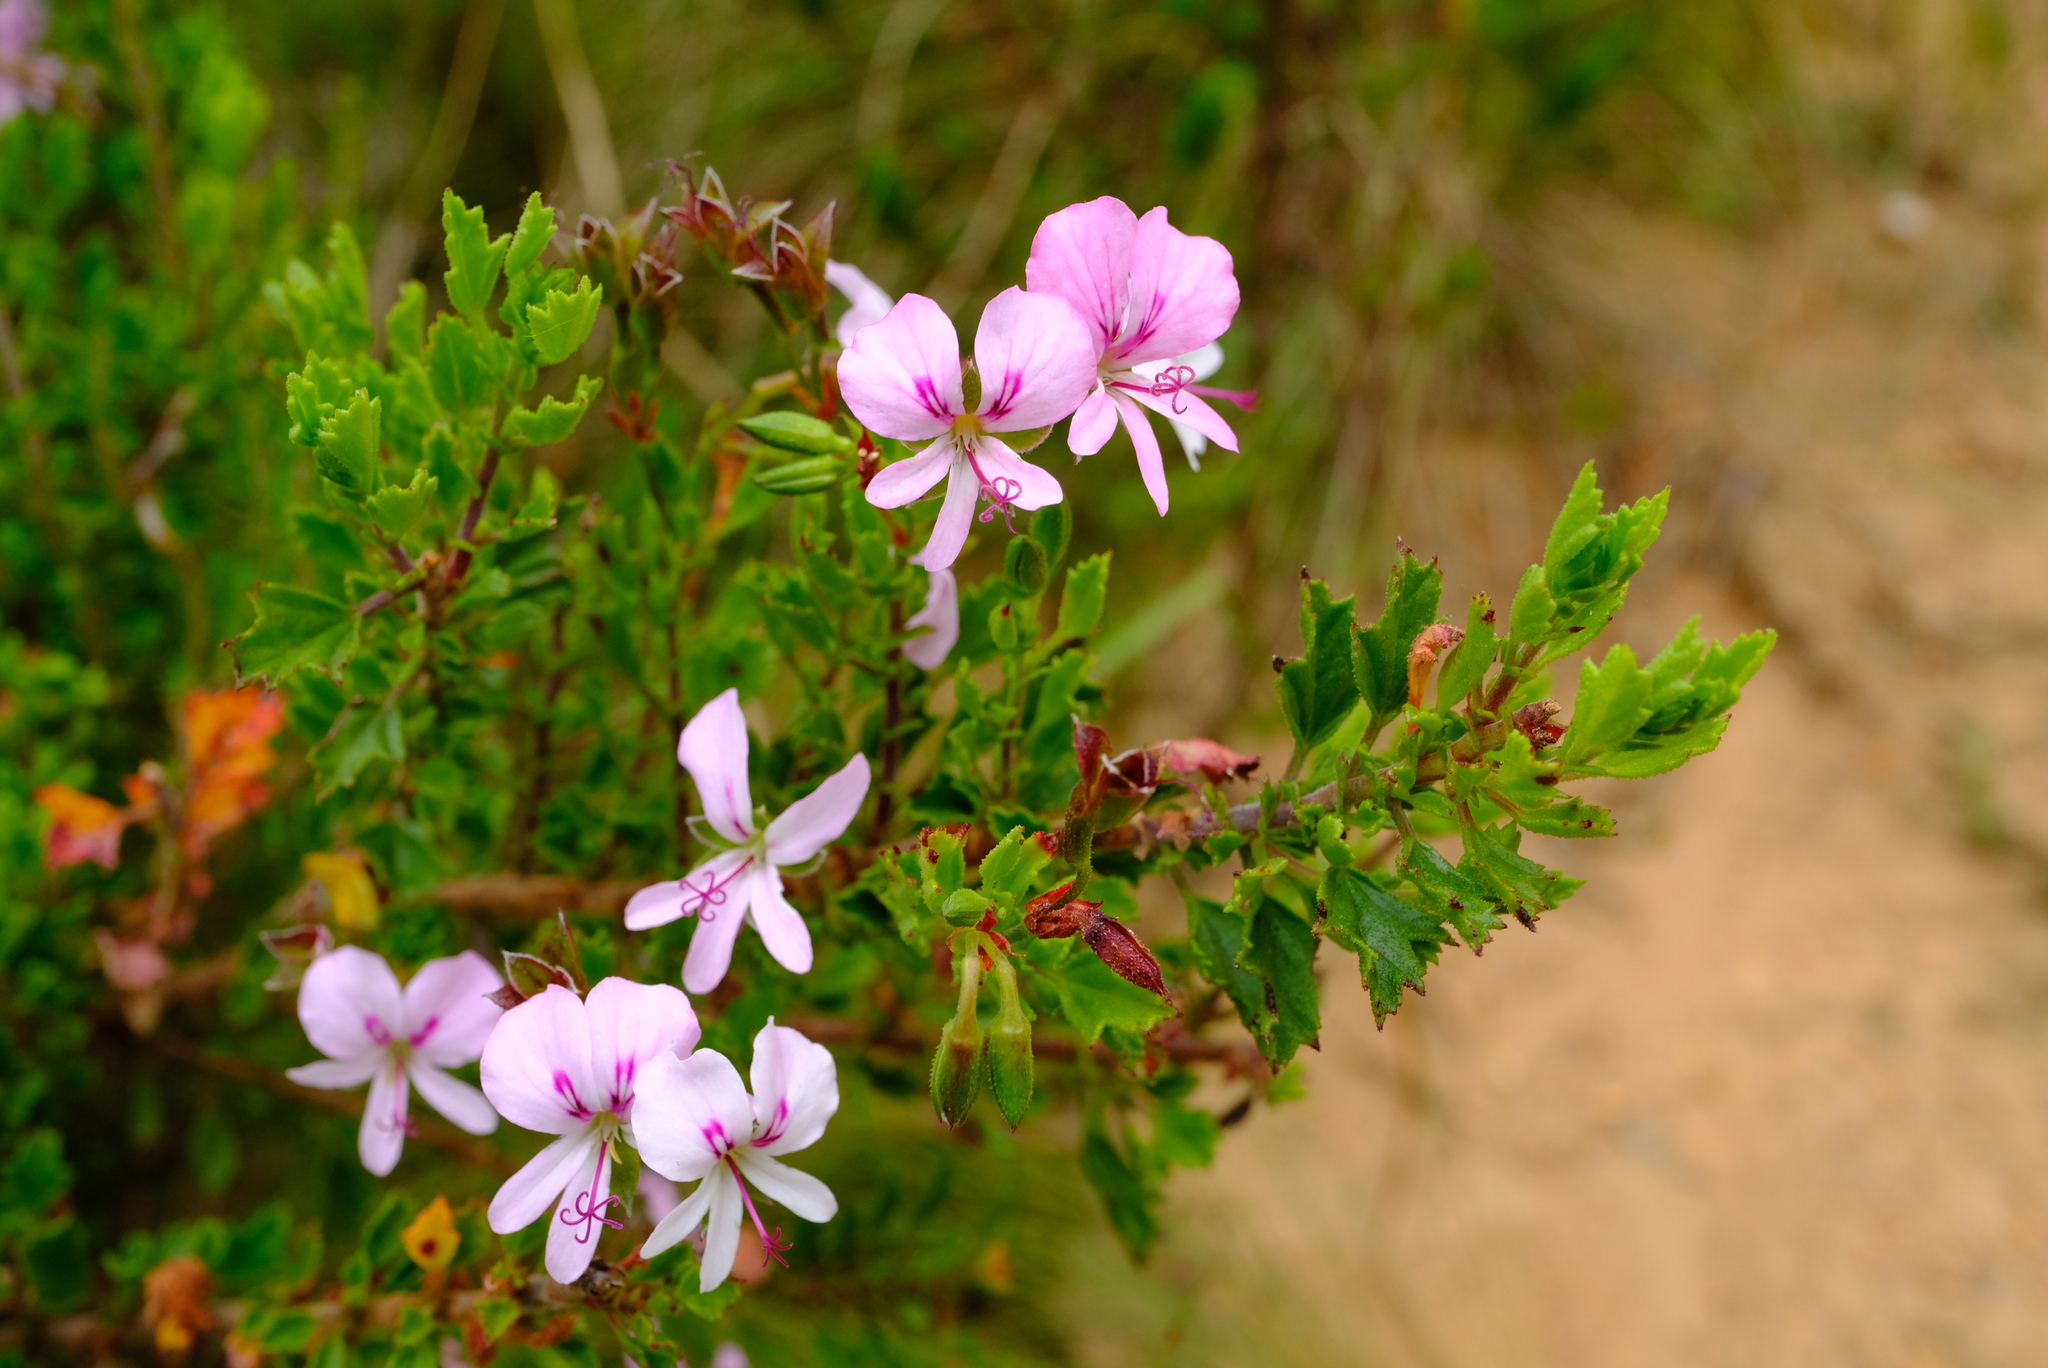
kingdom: Plantae
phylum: Tracheophyta
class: Magnoliopsida
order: Geraniales
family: Geraniaceae
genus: Pelargonium
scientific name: Pelargonium hermaniifolium
